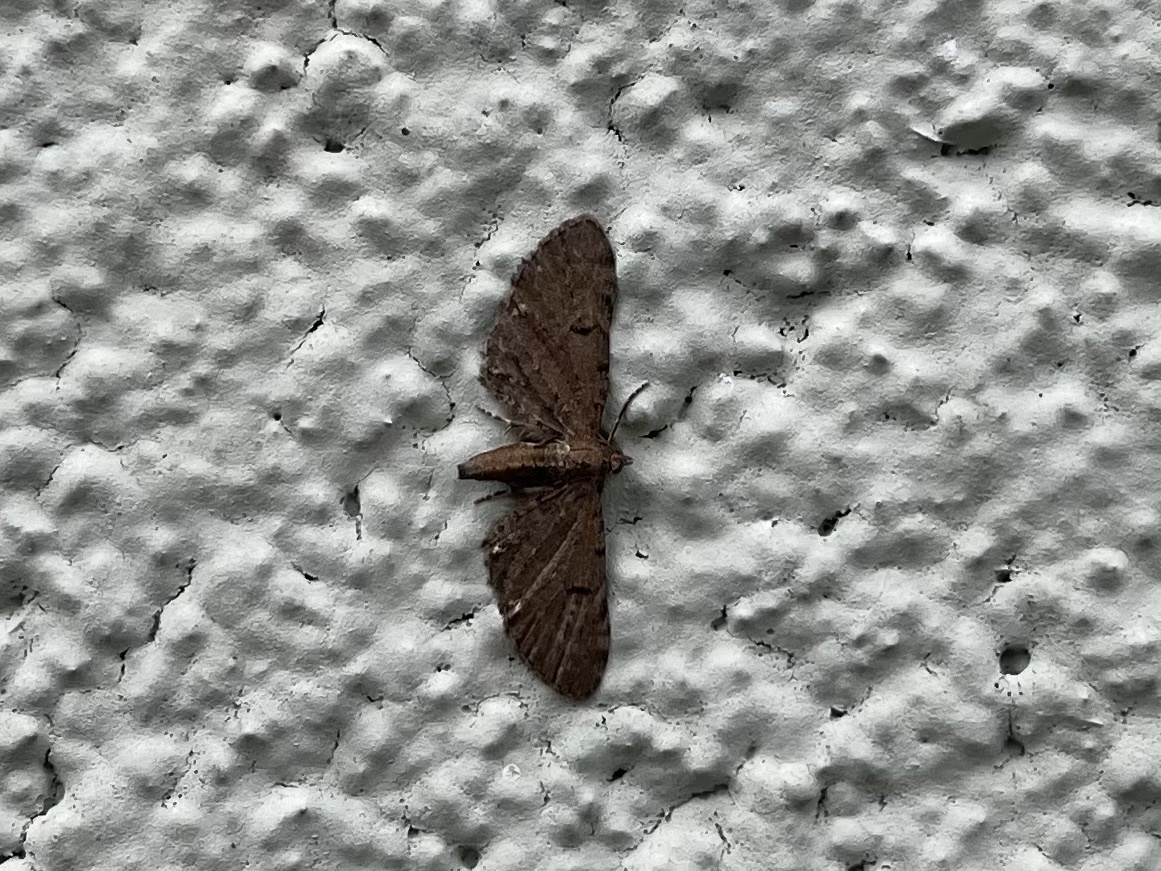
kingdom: Animalia
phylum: Arthropoda
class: Insecta
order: Lepidoptera
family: Geometridae
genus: Eupithecia
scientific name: Eupithecia absinthiata
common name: Wormwood pug
